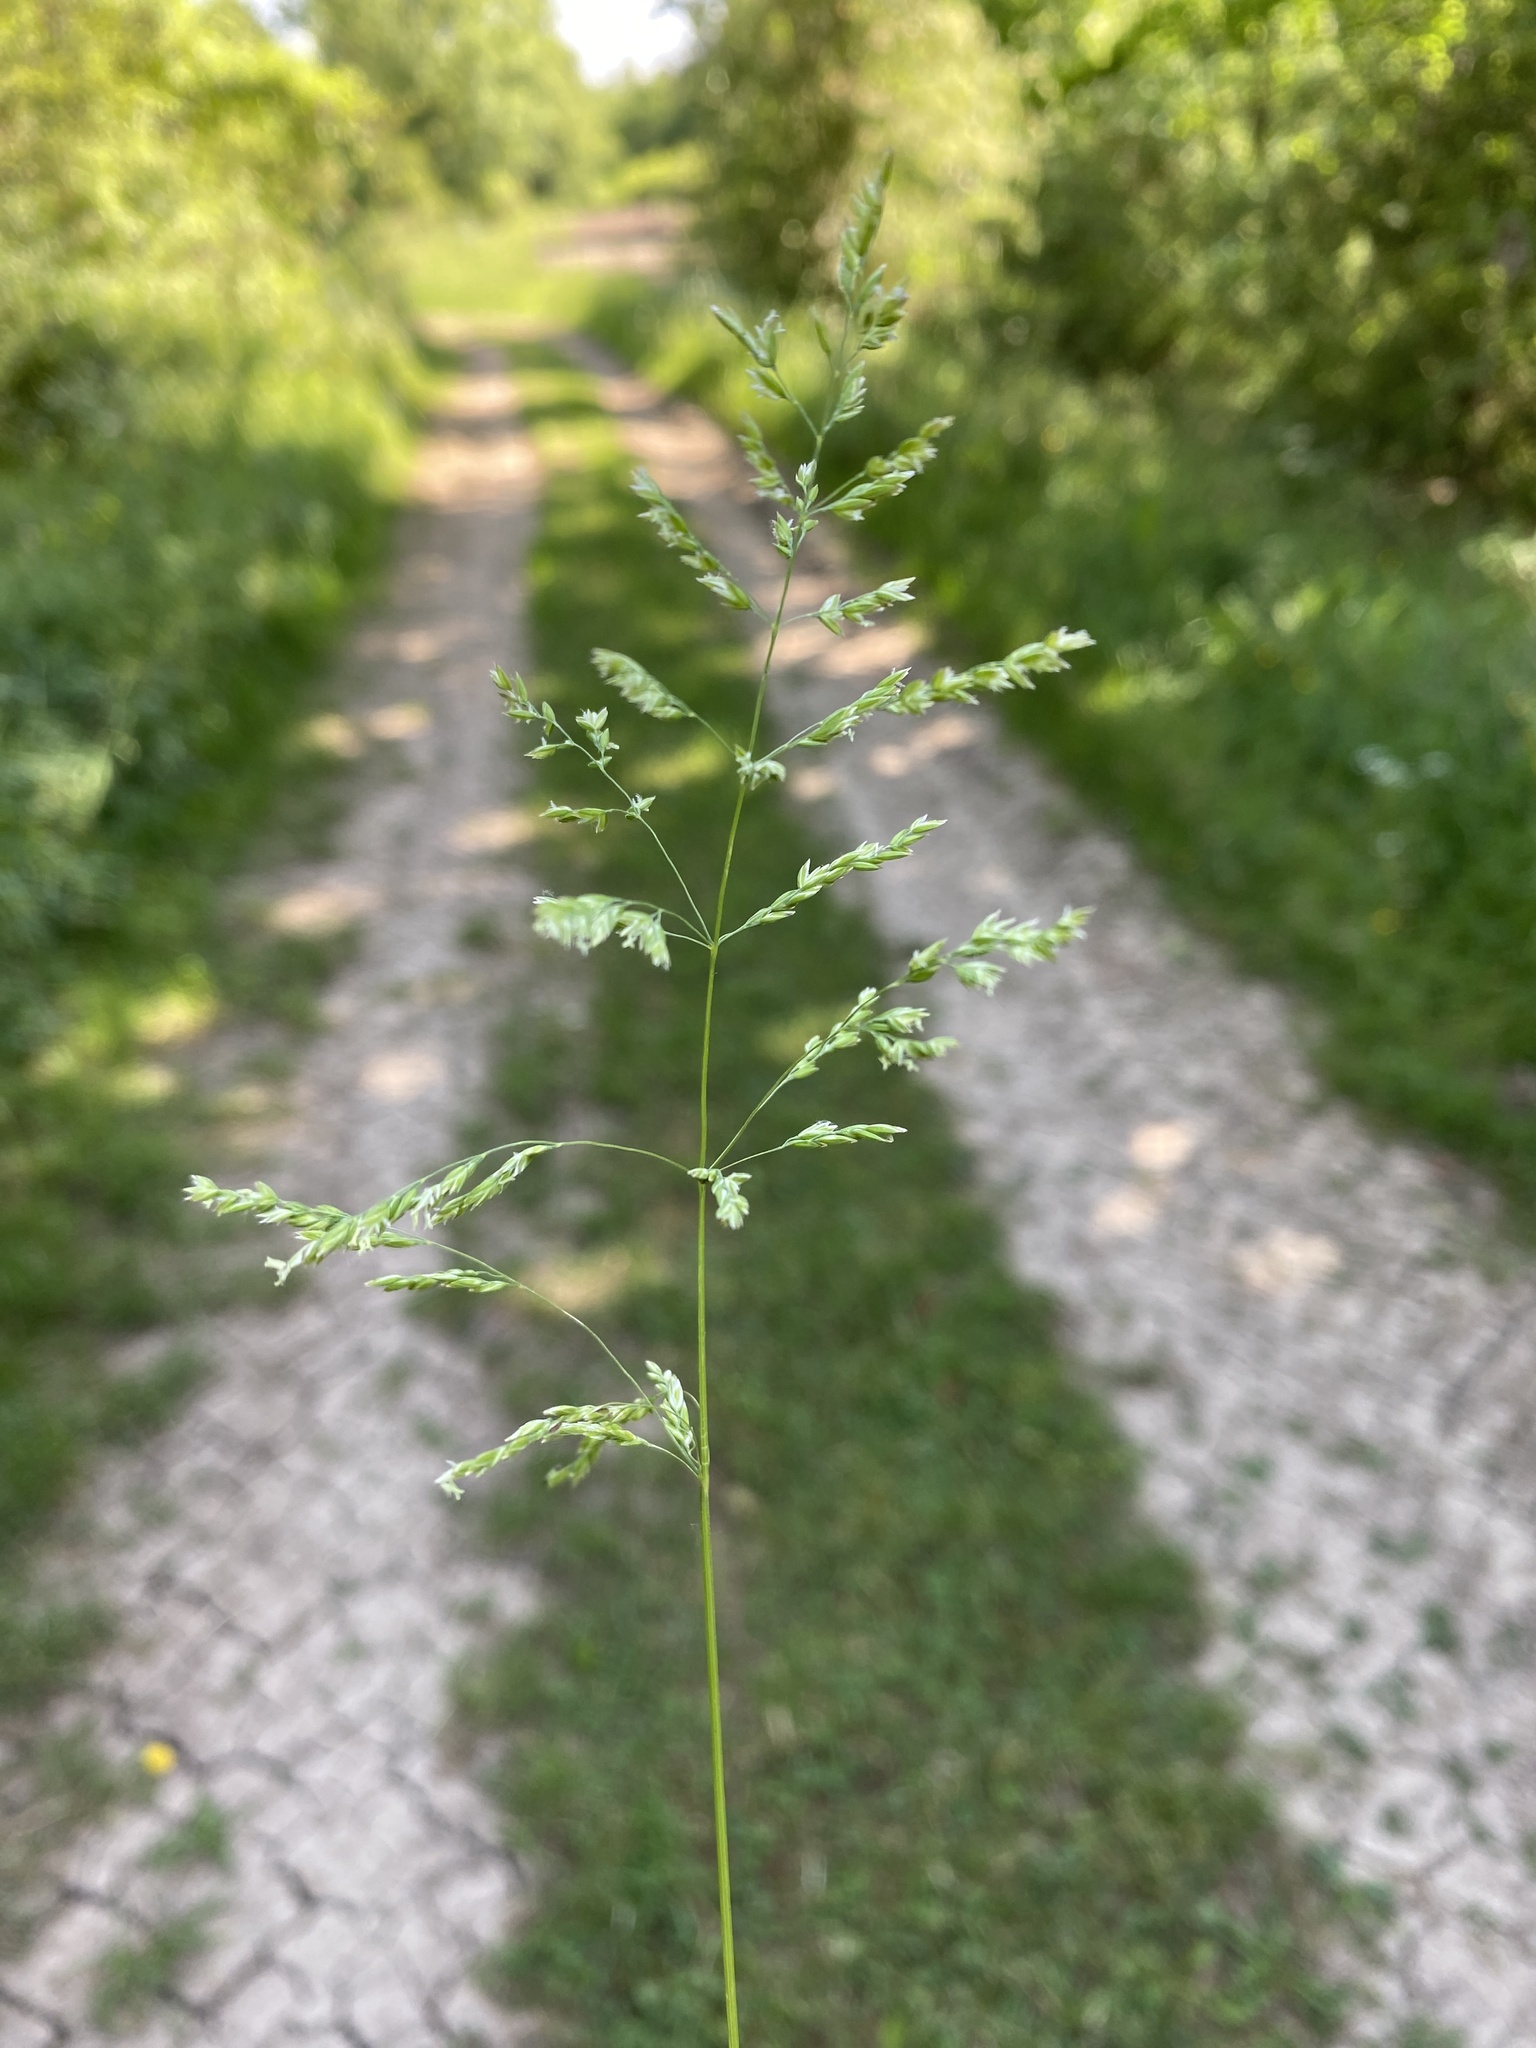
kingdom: Plantae
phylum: Tracheophyta
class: Liliopsida
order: Poales
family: Poaceae
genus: Poa
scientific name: Poa trivialis
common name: Rough bluegrass
